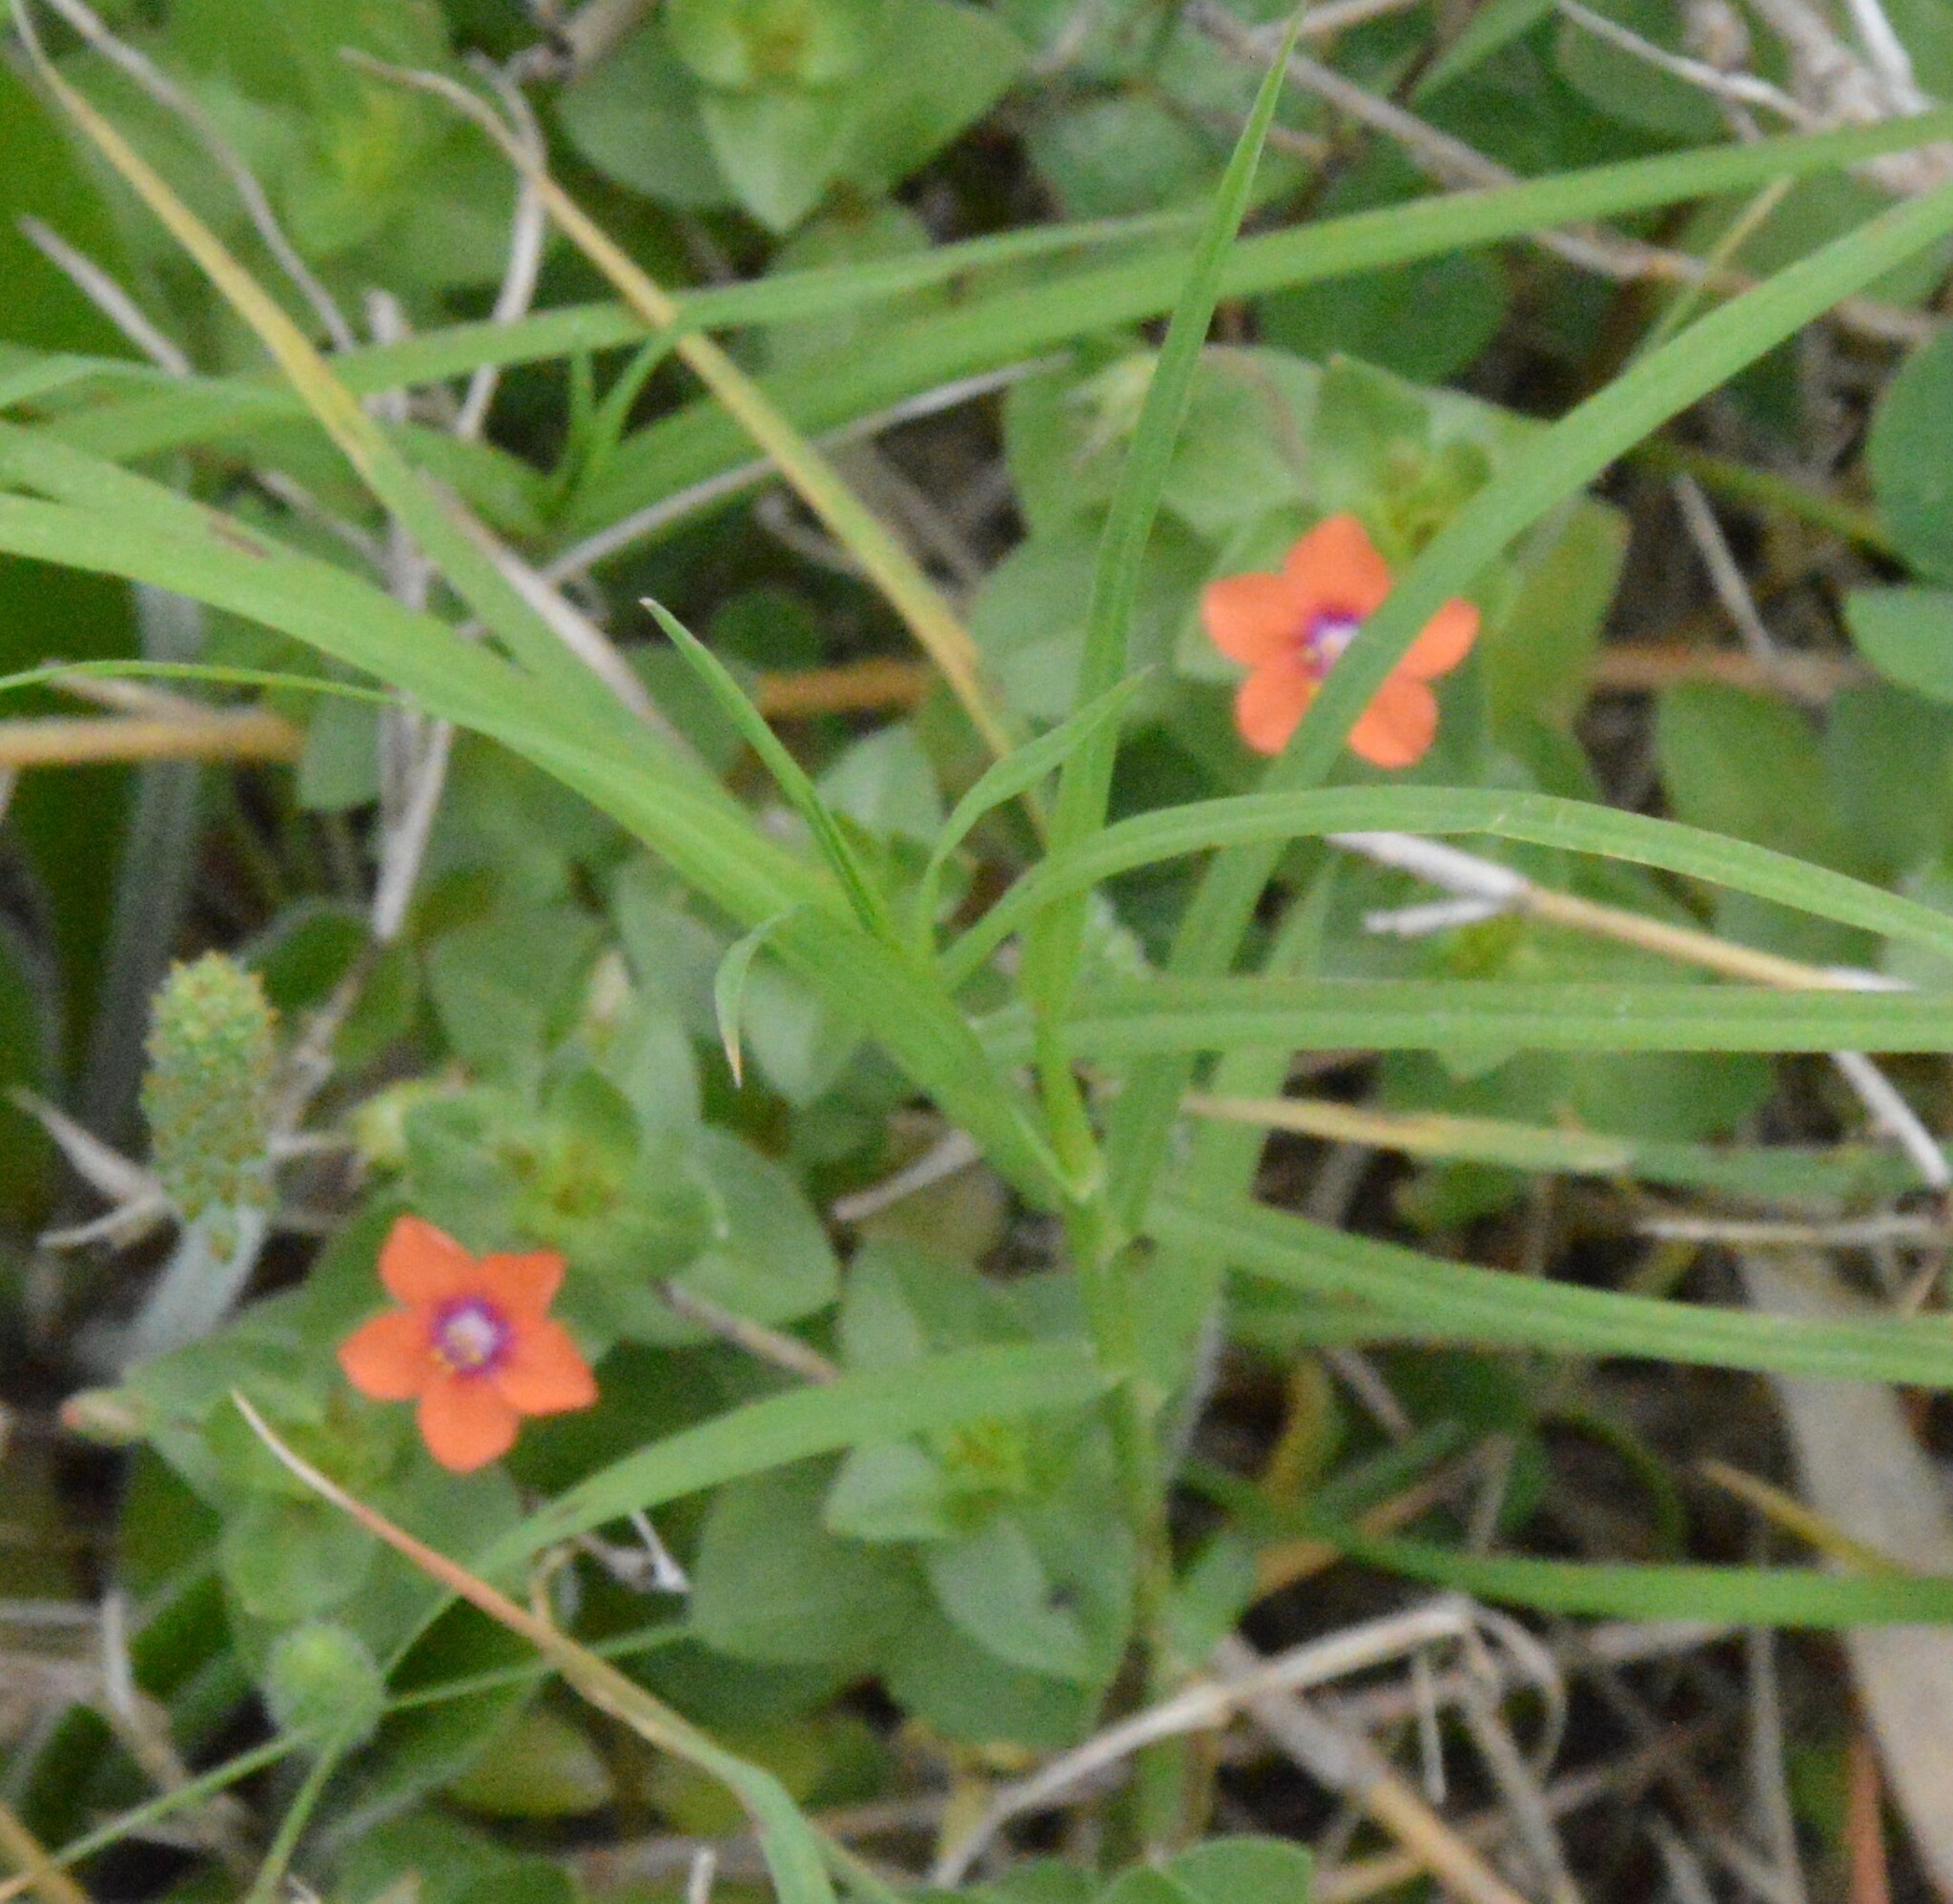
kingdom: Plantae
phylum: Tracheophyta
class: Magnoliopsida
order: Ericales
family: Primulaceae
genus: Lysimachia
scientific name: Lysimachia arvensis
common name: Scarlet pimpernel
